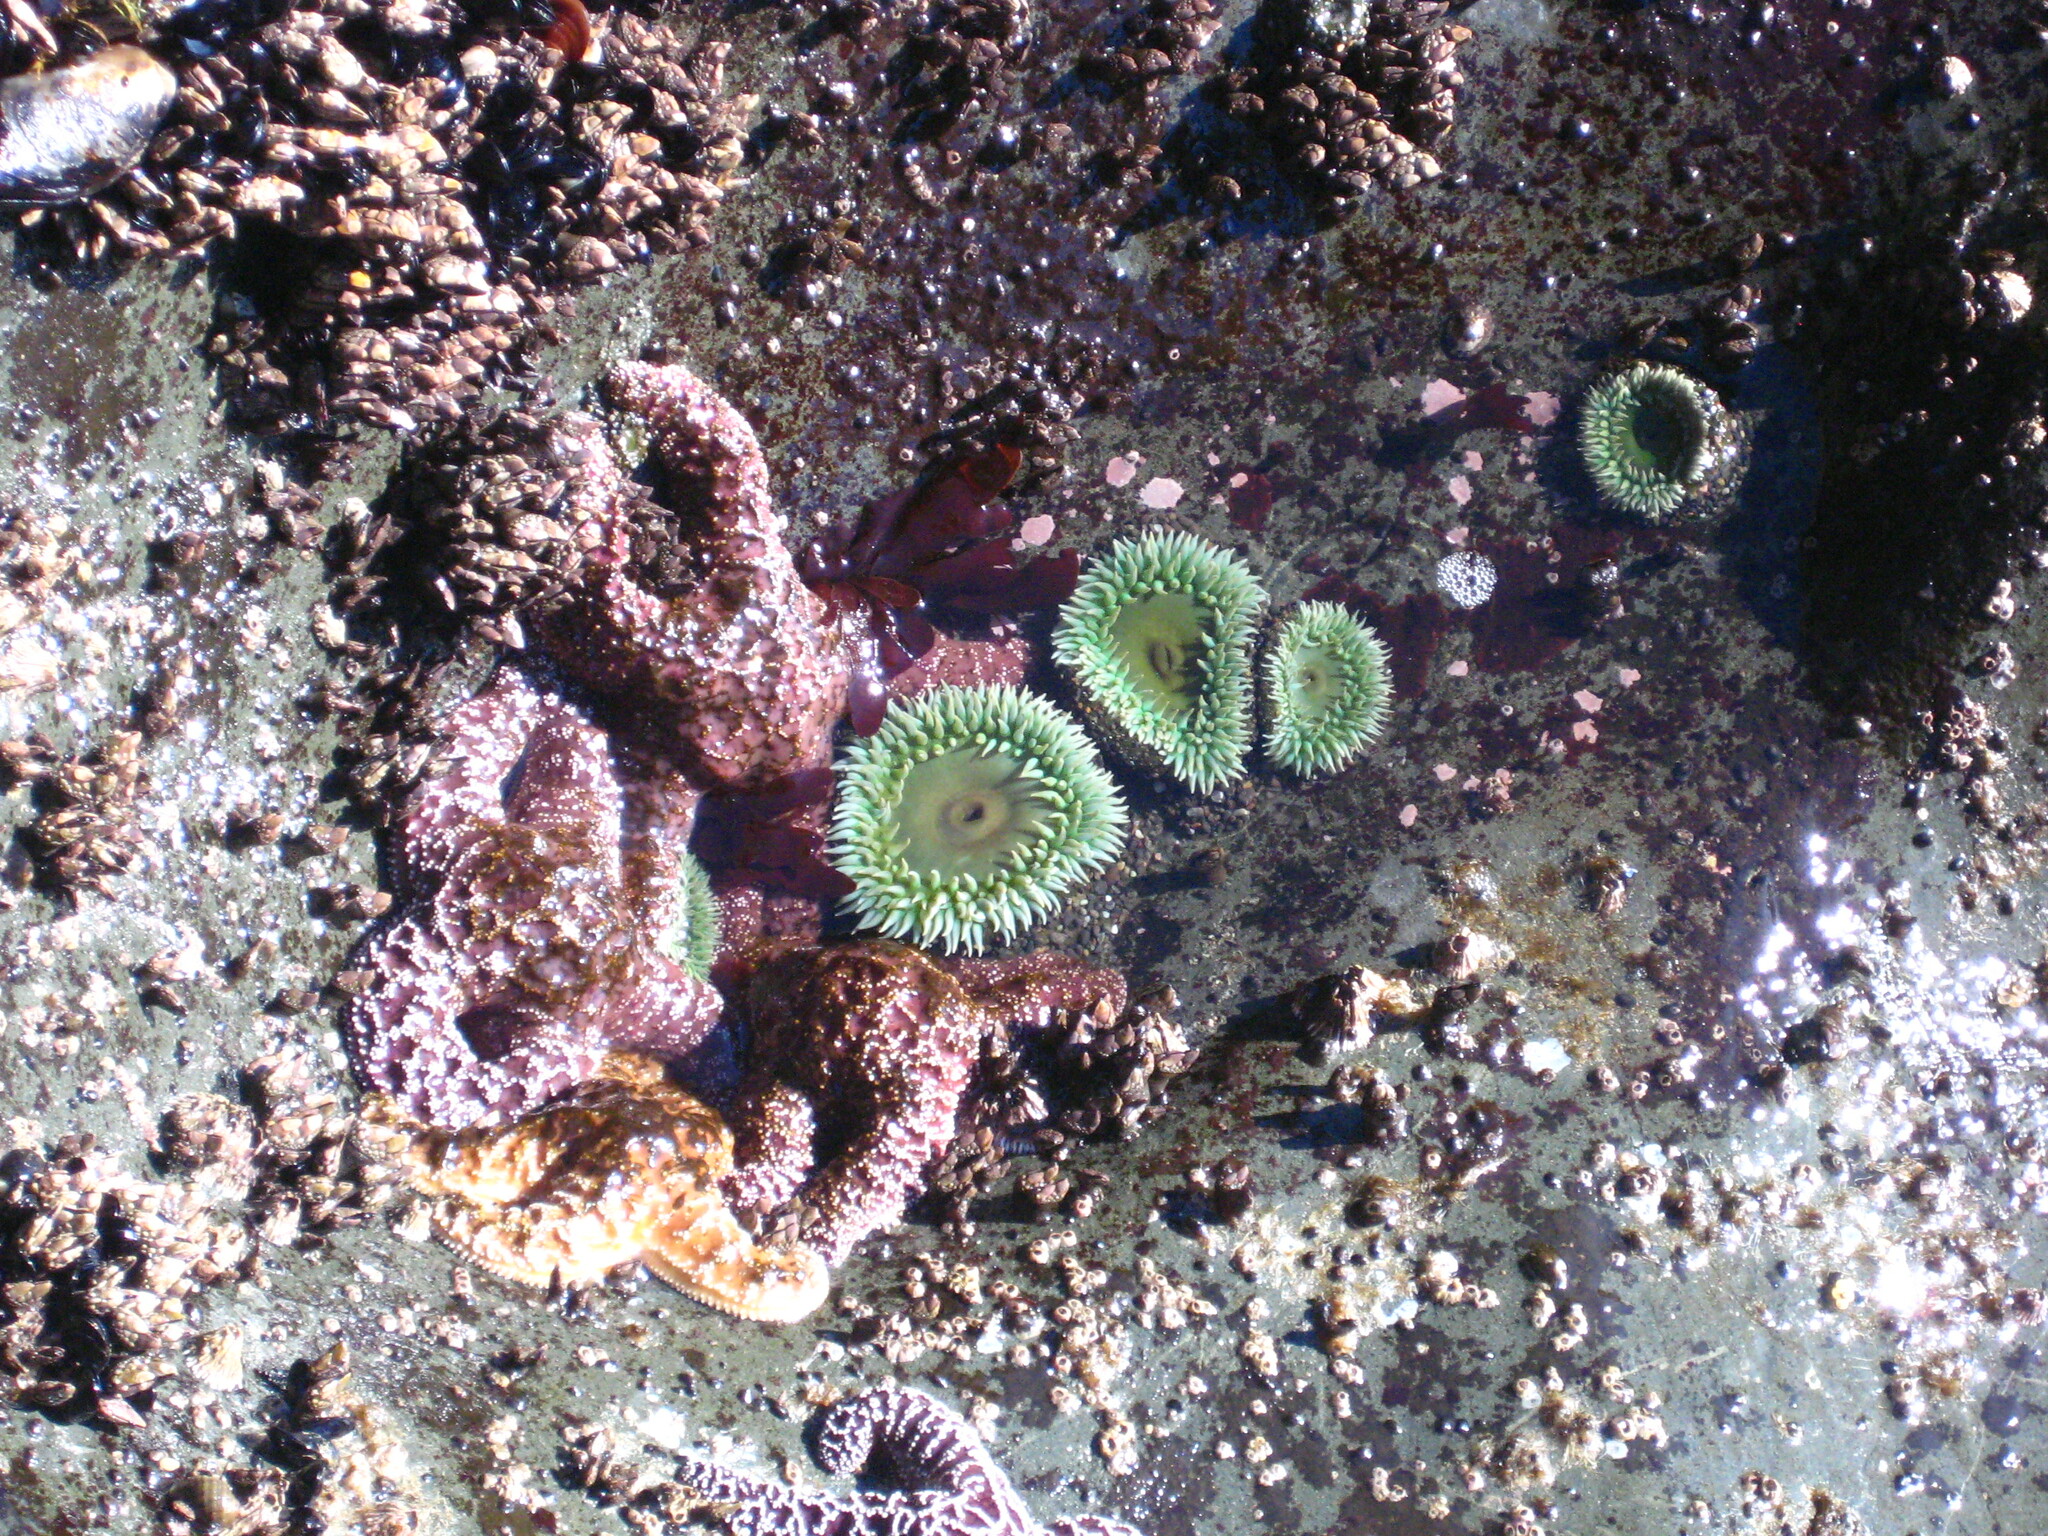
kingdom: Animalia
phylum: Cnidaria
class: Anthozoa
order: Actiniaria
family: Actiniidae
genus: Anthopleura
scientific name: Anthopleura xanthogrammica
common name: Giant green anemone
